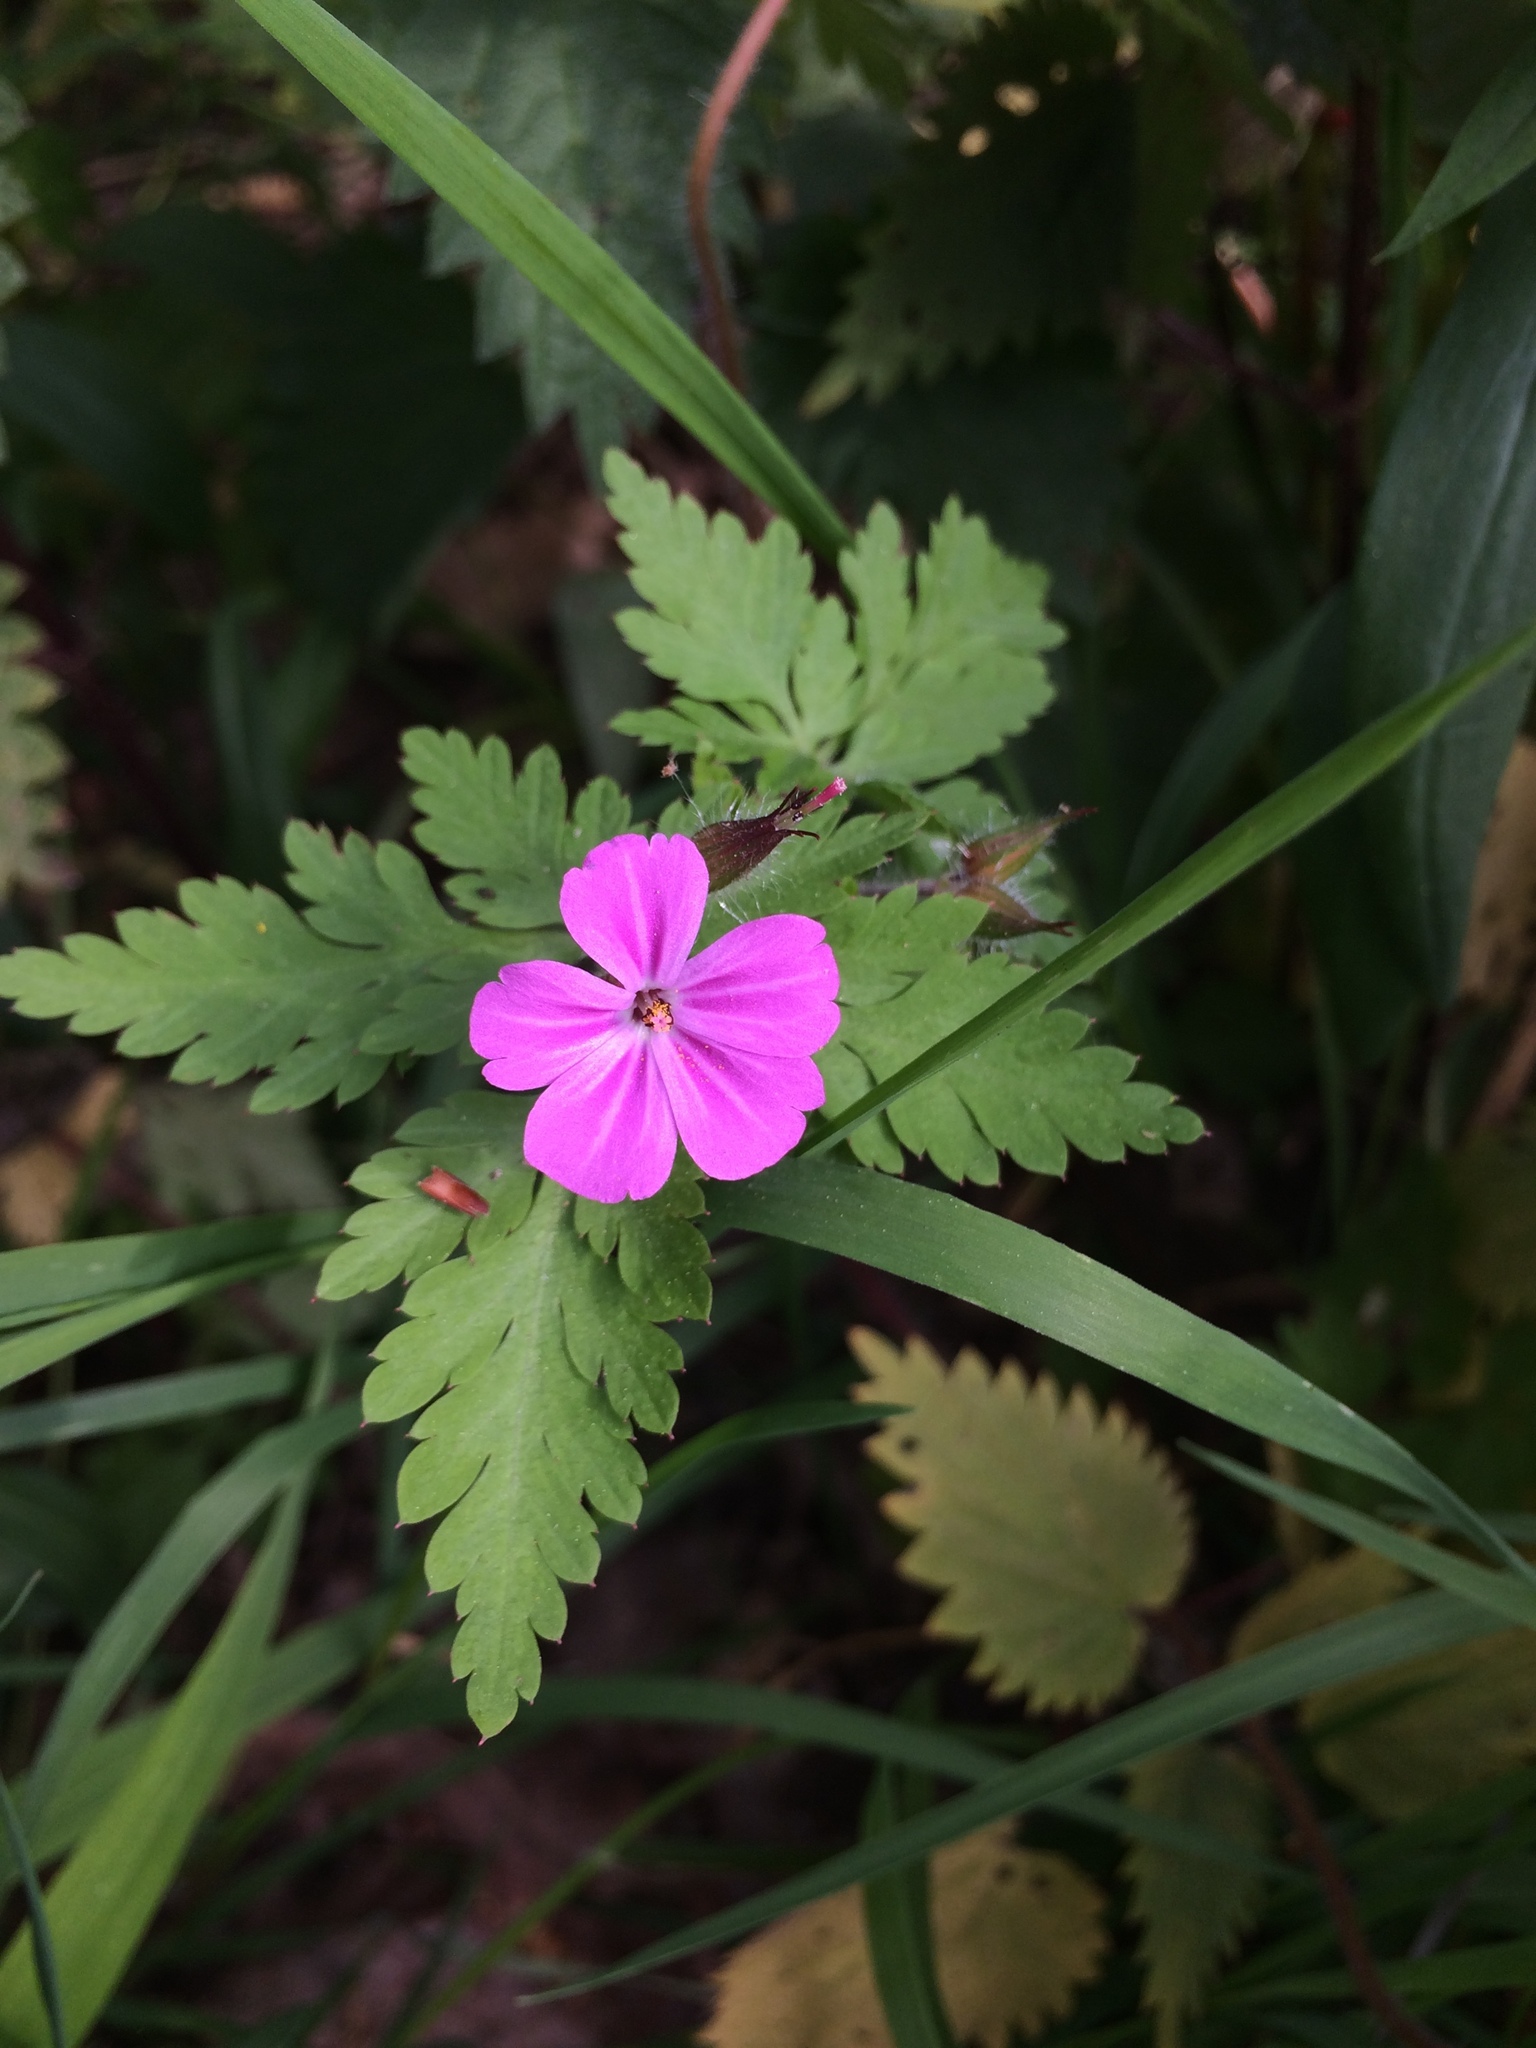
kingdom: Plantae
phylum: Tracheophyta
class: Magnoliopsida
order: Geraniales
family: Geraniaceae
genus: Geranium
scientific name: Geranium robertianum
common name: Herb-robert
